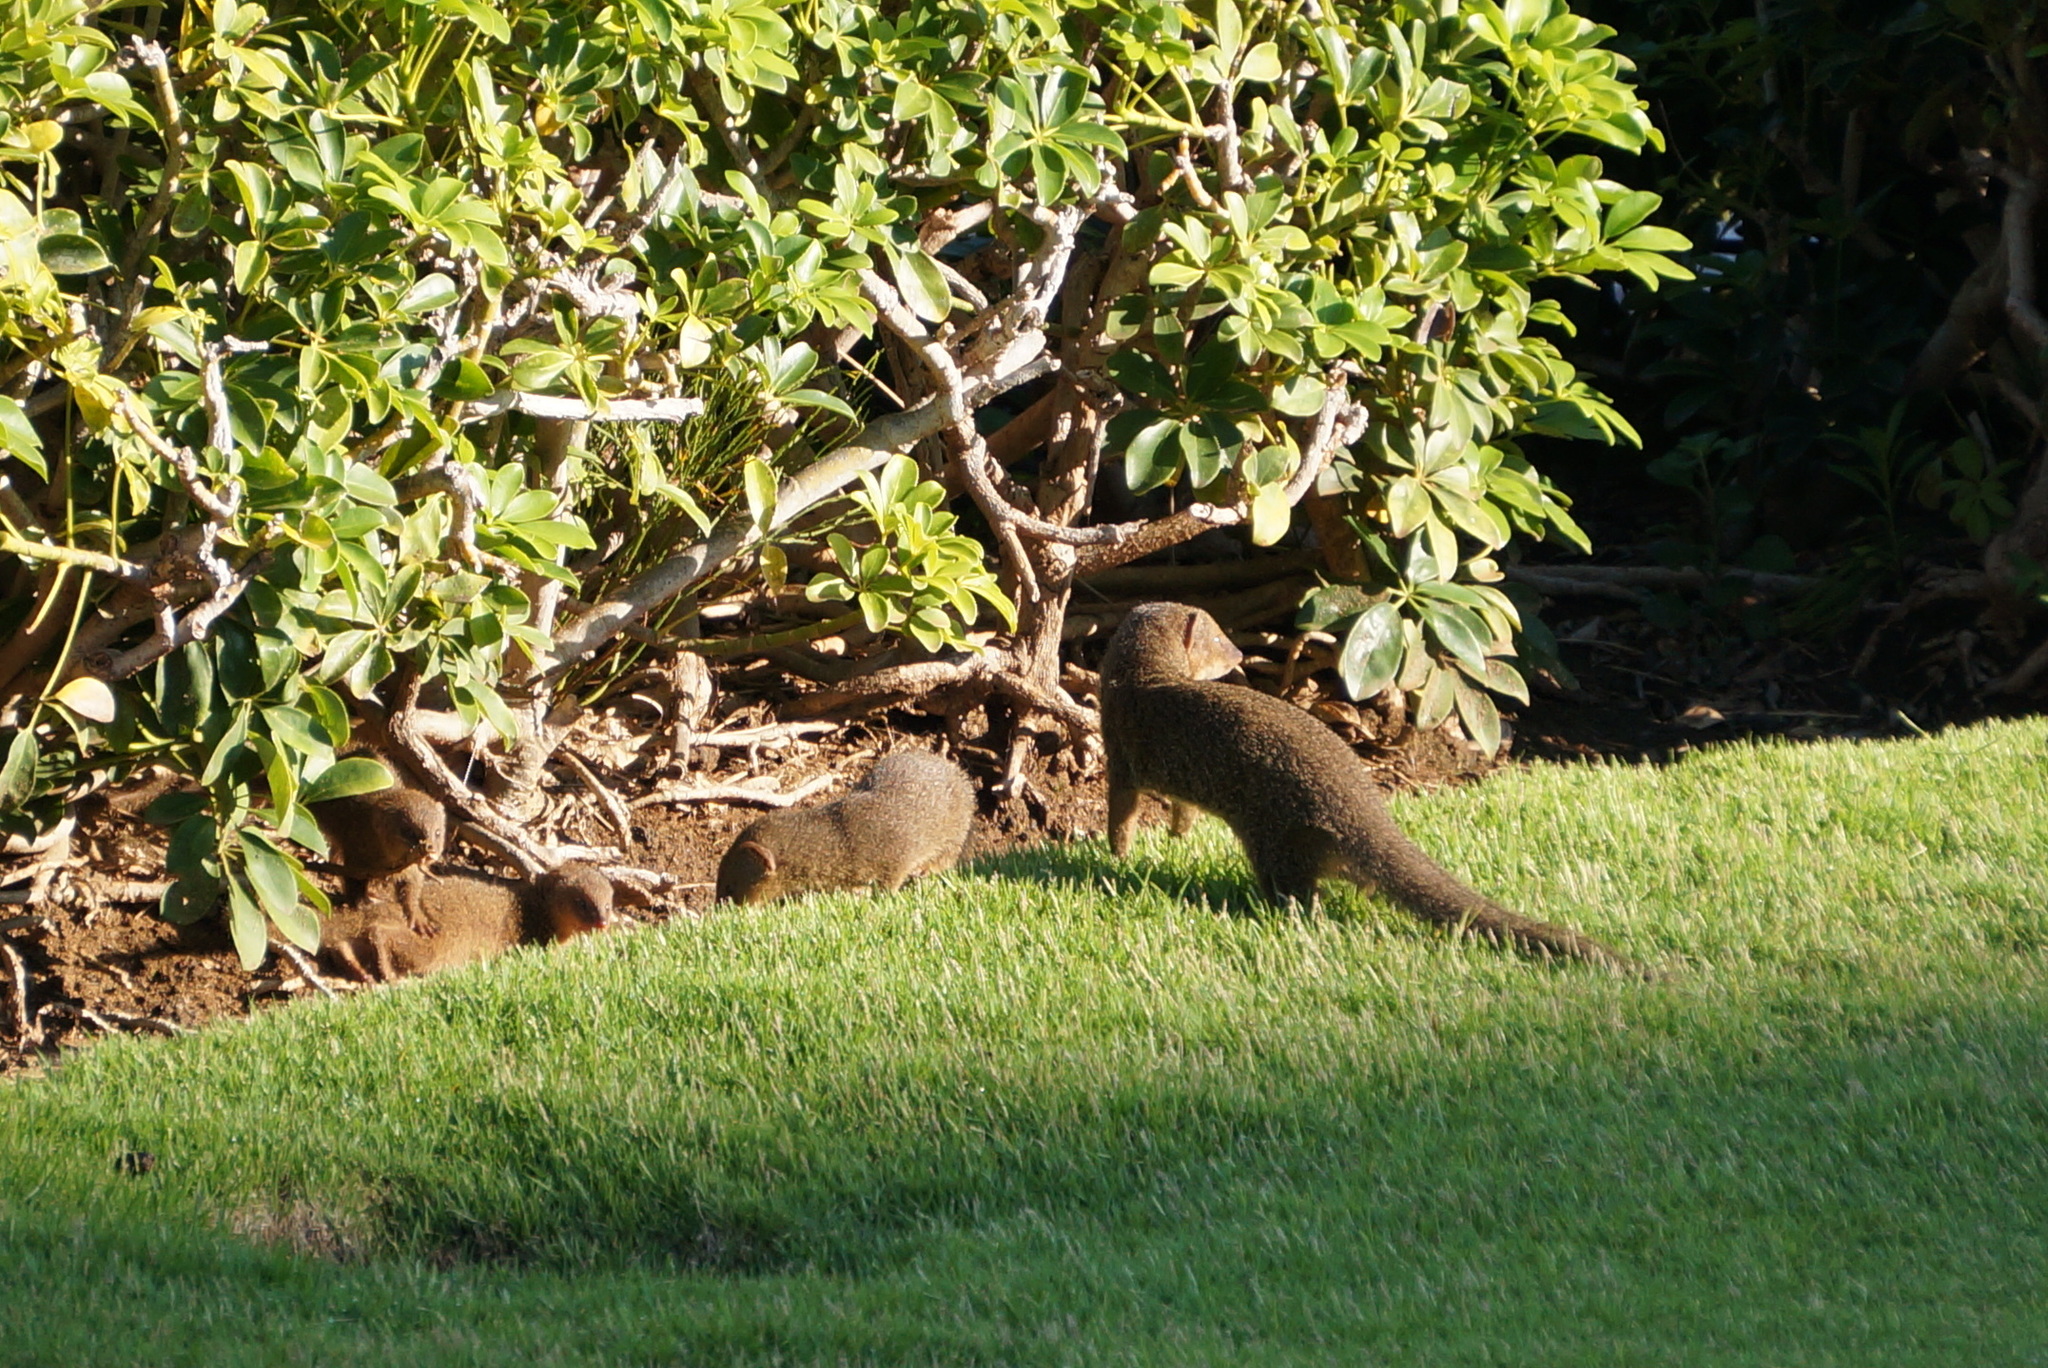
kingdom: Animalia
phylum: Chordata
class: Mammalia
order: Carnivora
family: Herpestidae
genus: Herpestes
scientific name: Herpestes javanicus
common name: Small asian mongoose
